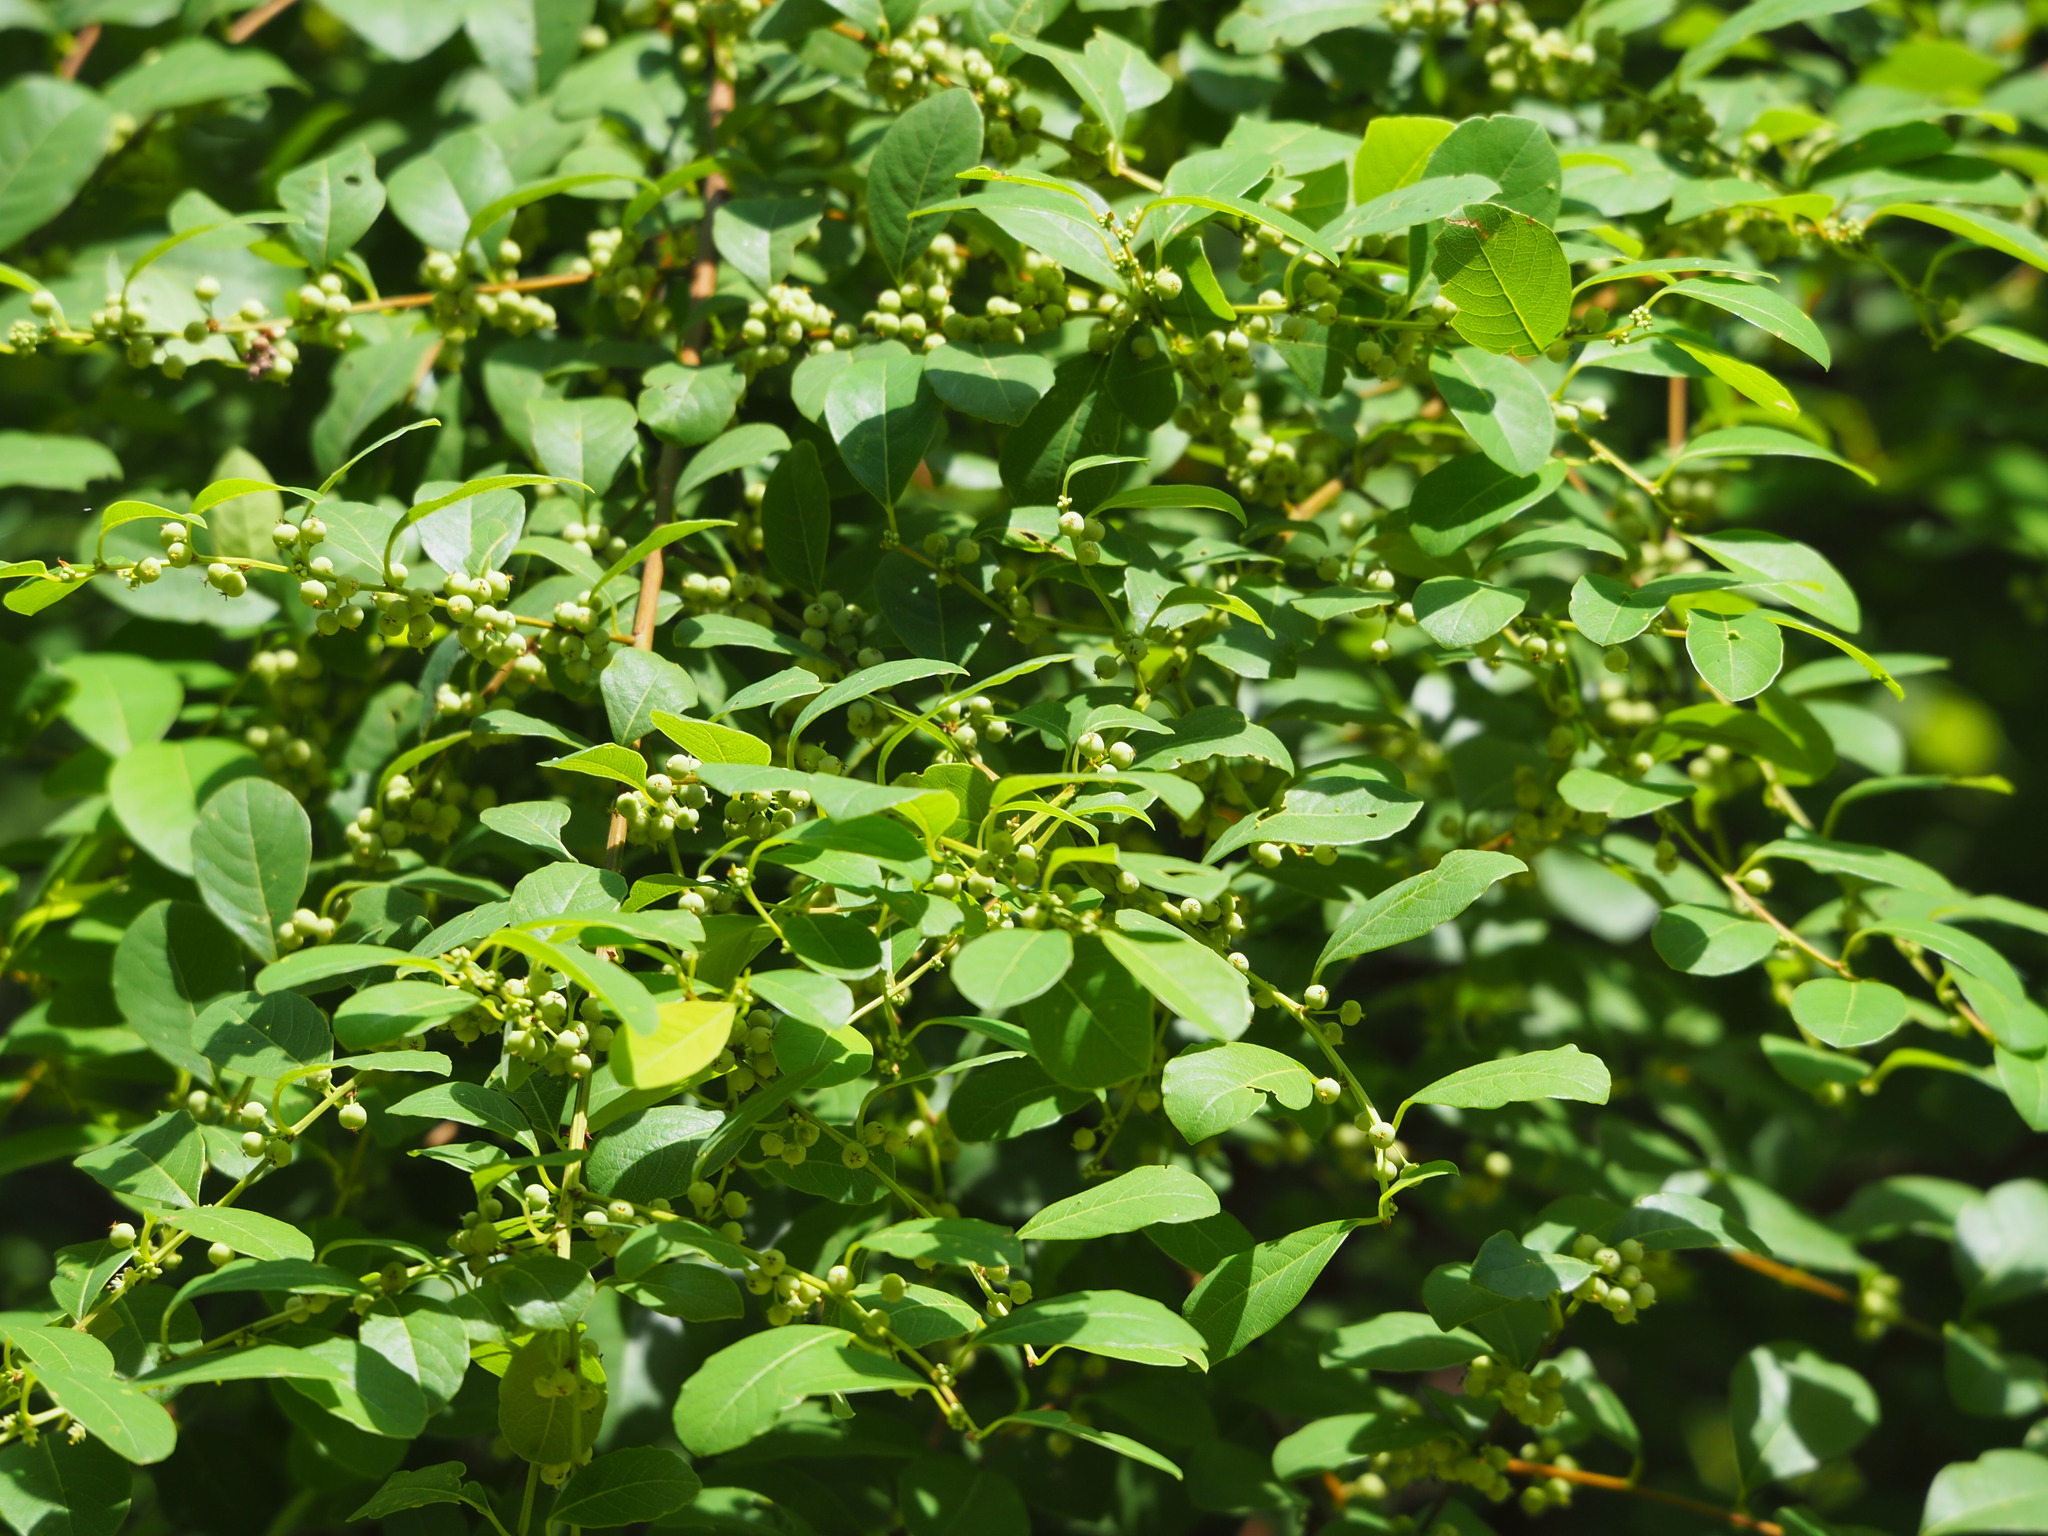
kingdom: Plantae
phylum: Tracheophyta
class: Magnoliopsida
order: Malpighiales
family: Phyllanthaceae
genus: Flueggea
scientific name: Flueggea virosa
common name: Common bushweed
